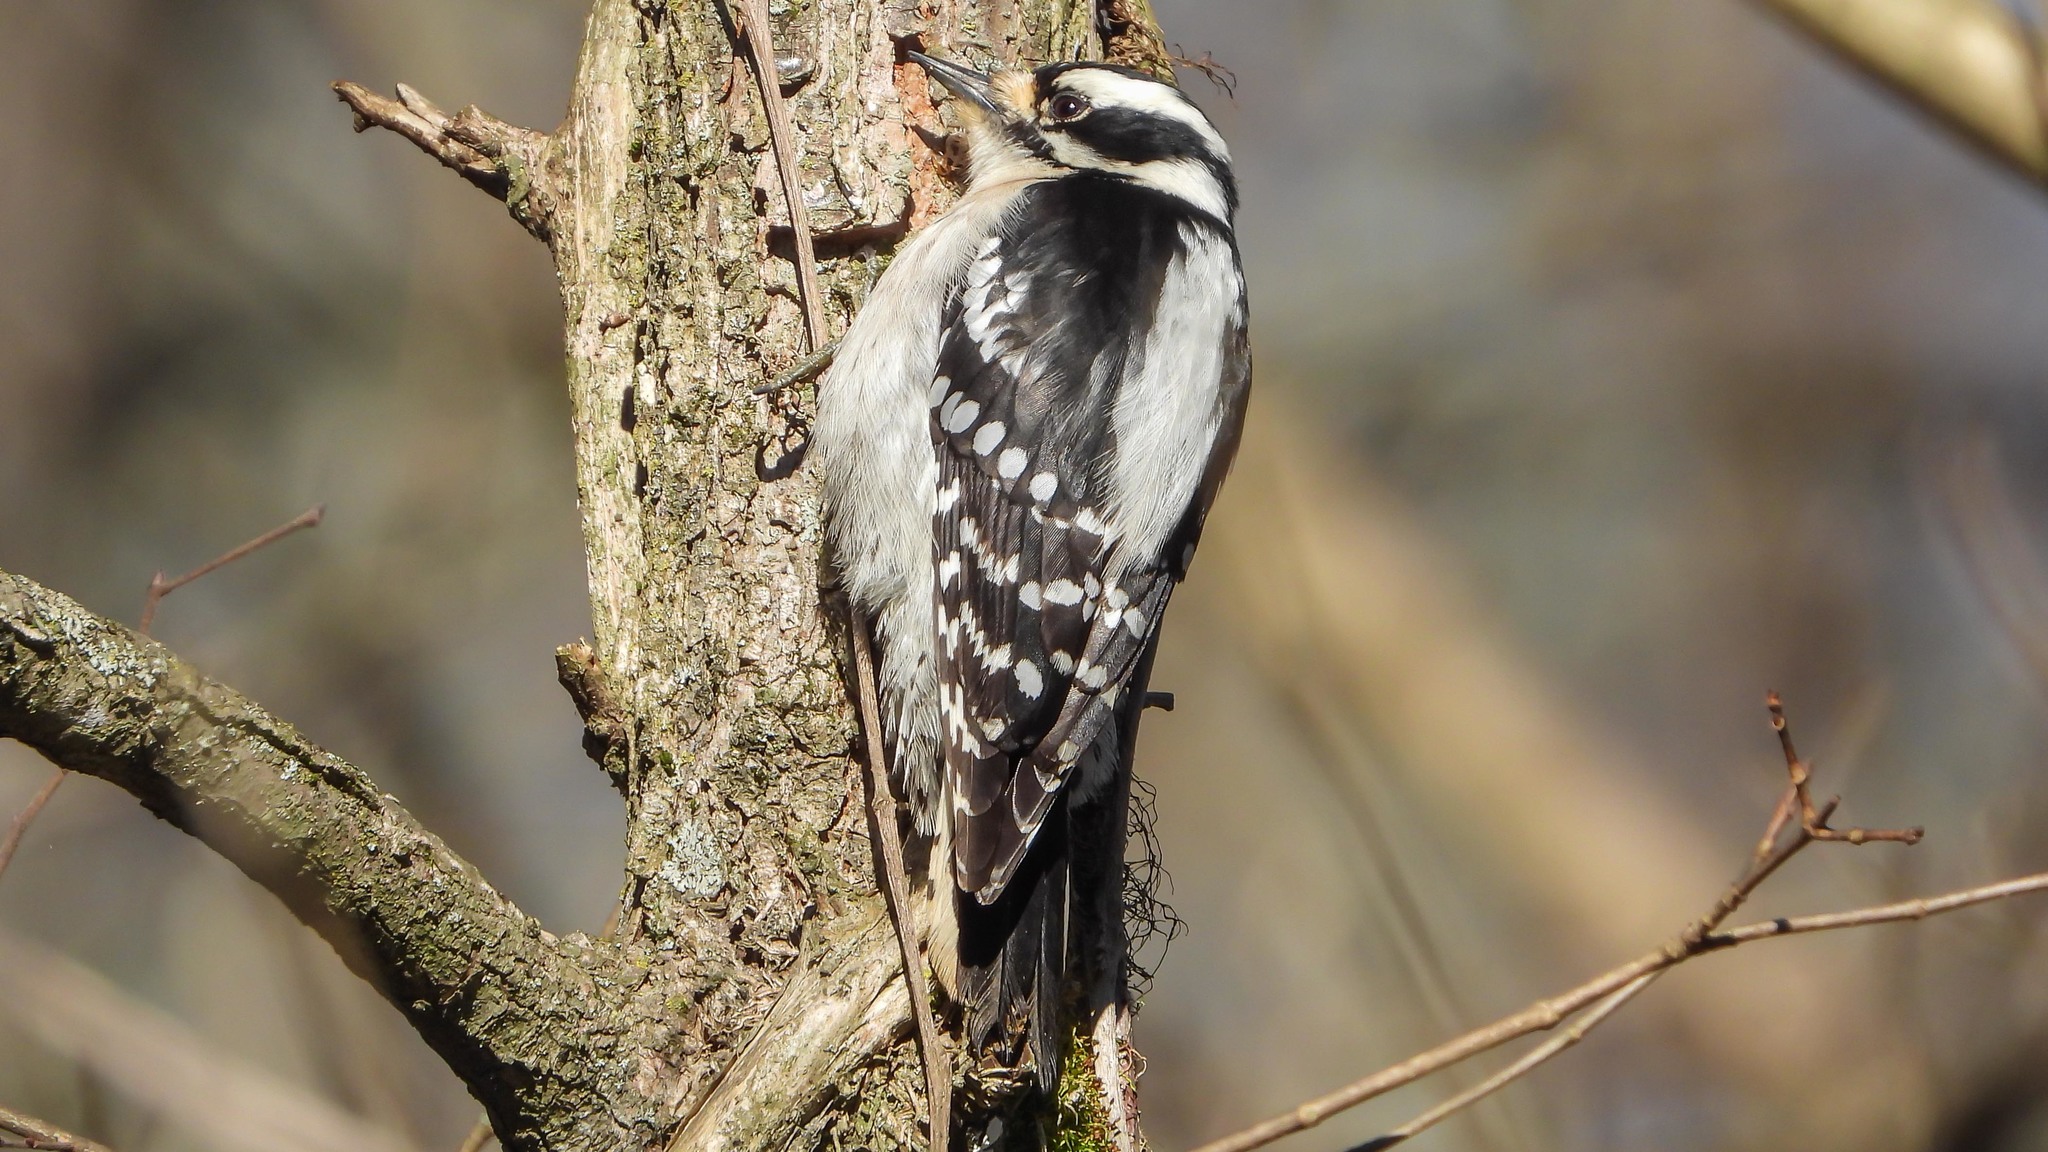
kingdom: Animalia
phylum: Chordata
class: Aves
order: Piciformes
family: Picidae
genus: Dryobates
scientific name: Dryobates pubescens
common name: Downy woodpecker
